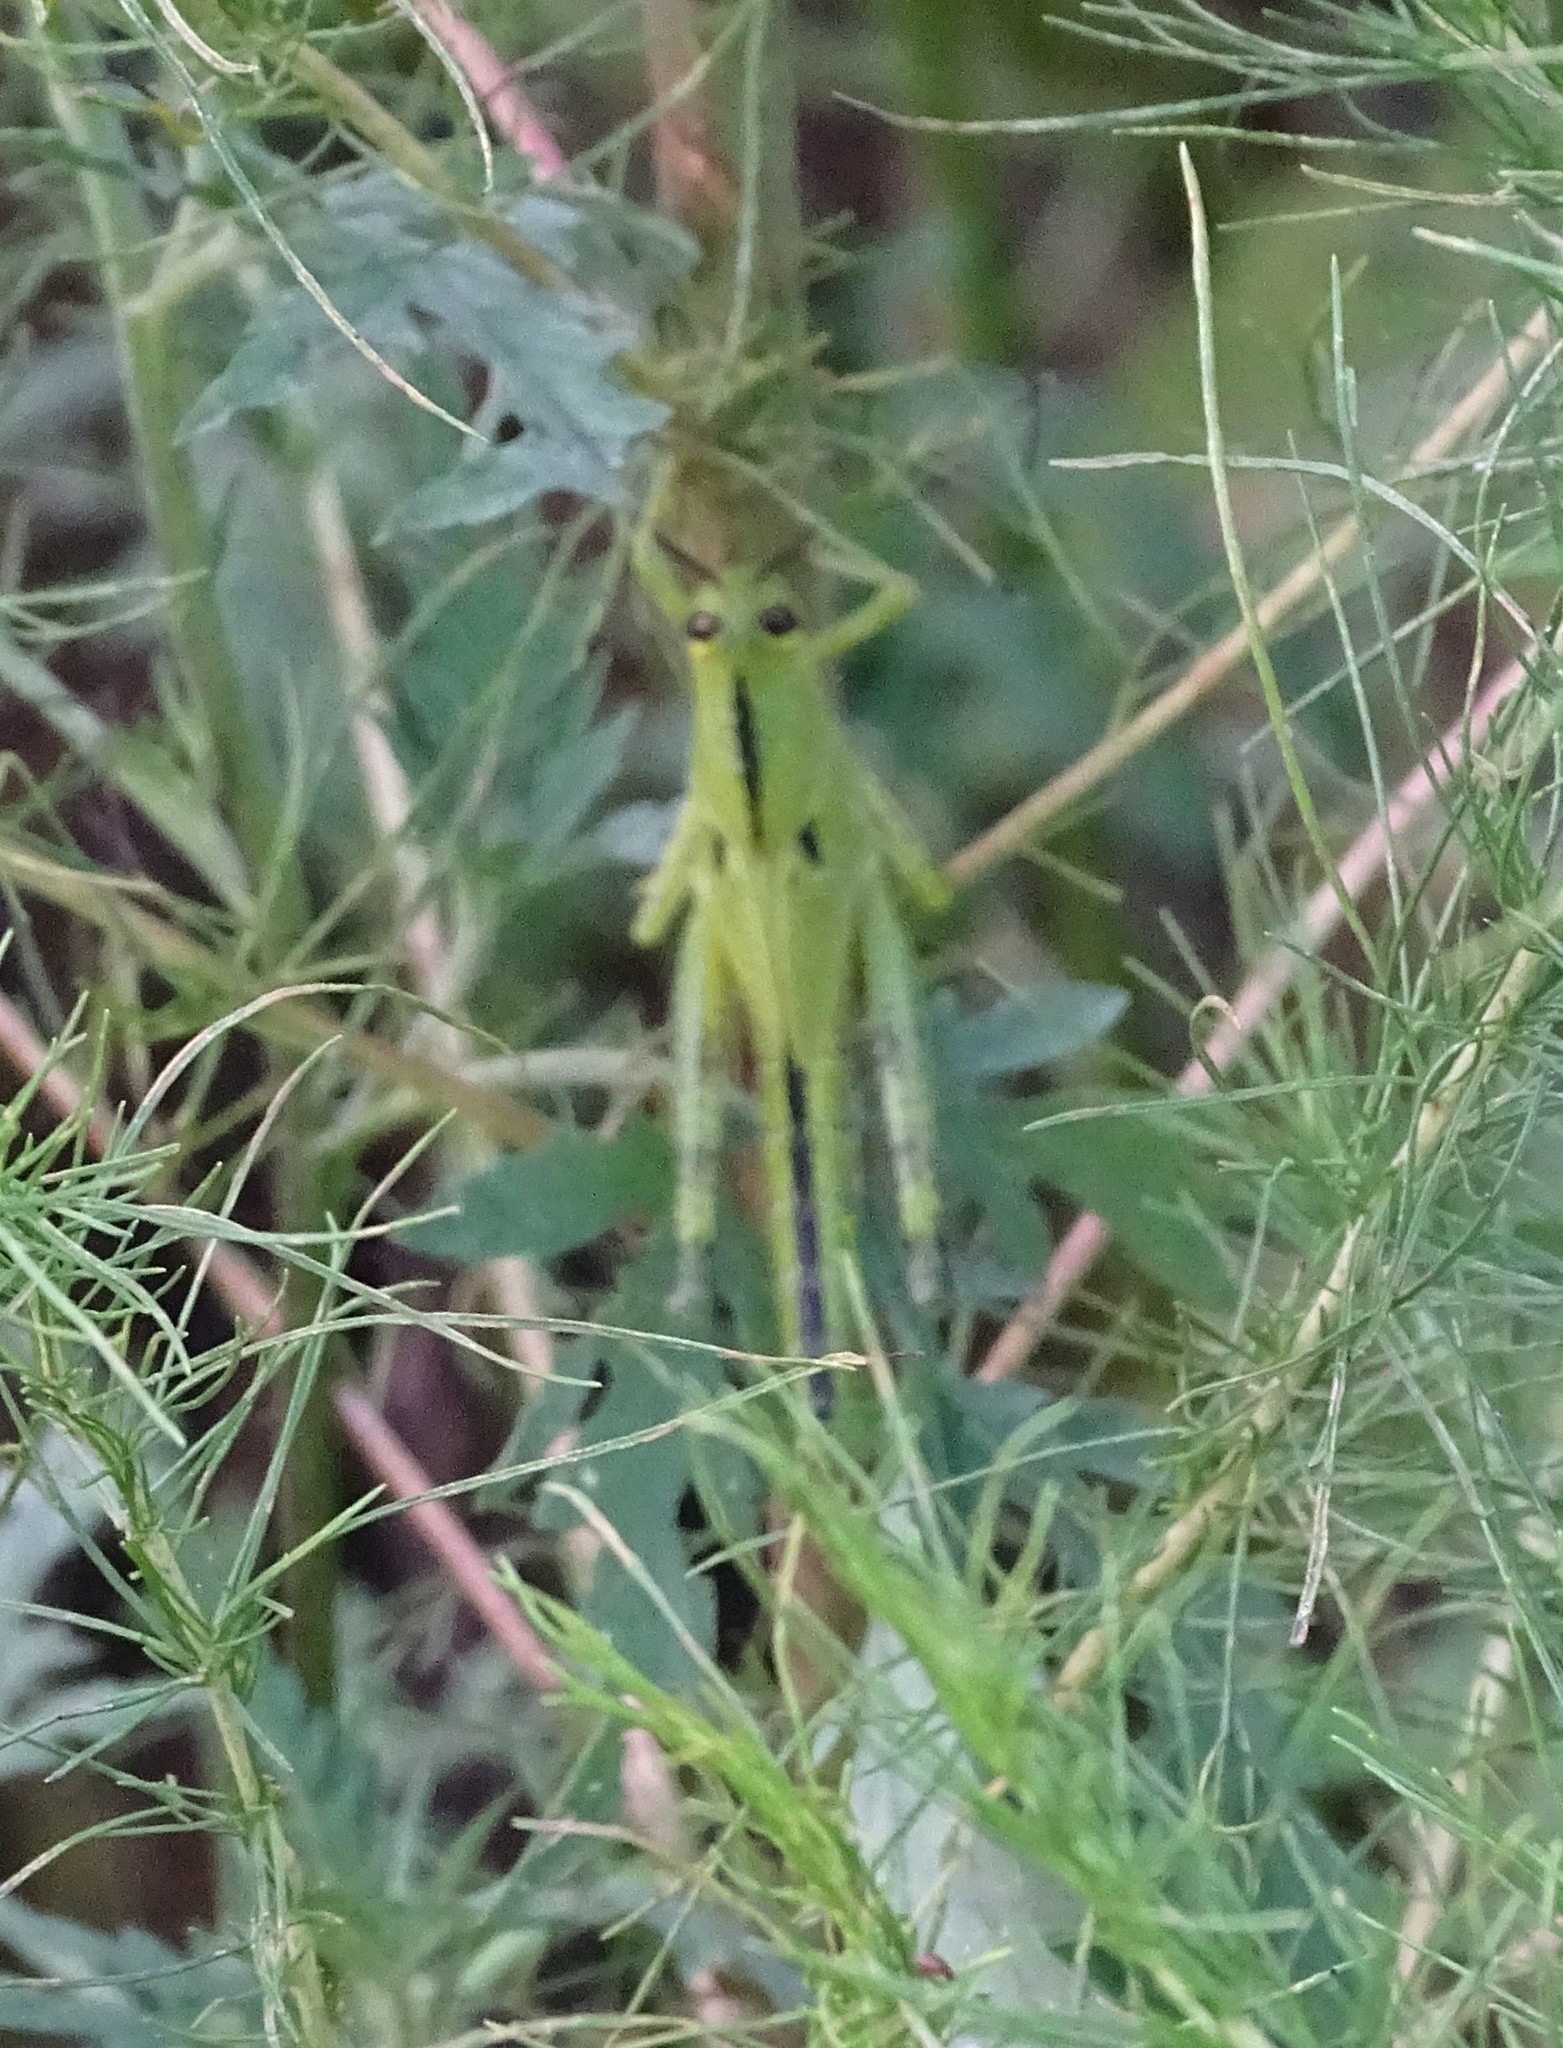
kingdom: Animalia
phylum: Arthropoda
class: Insecta
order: Orthoptera
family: Acrididae
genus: Schistocerca
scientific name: Schistocerca americana
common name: American bird locust
